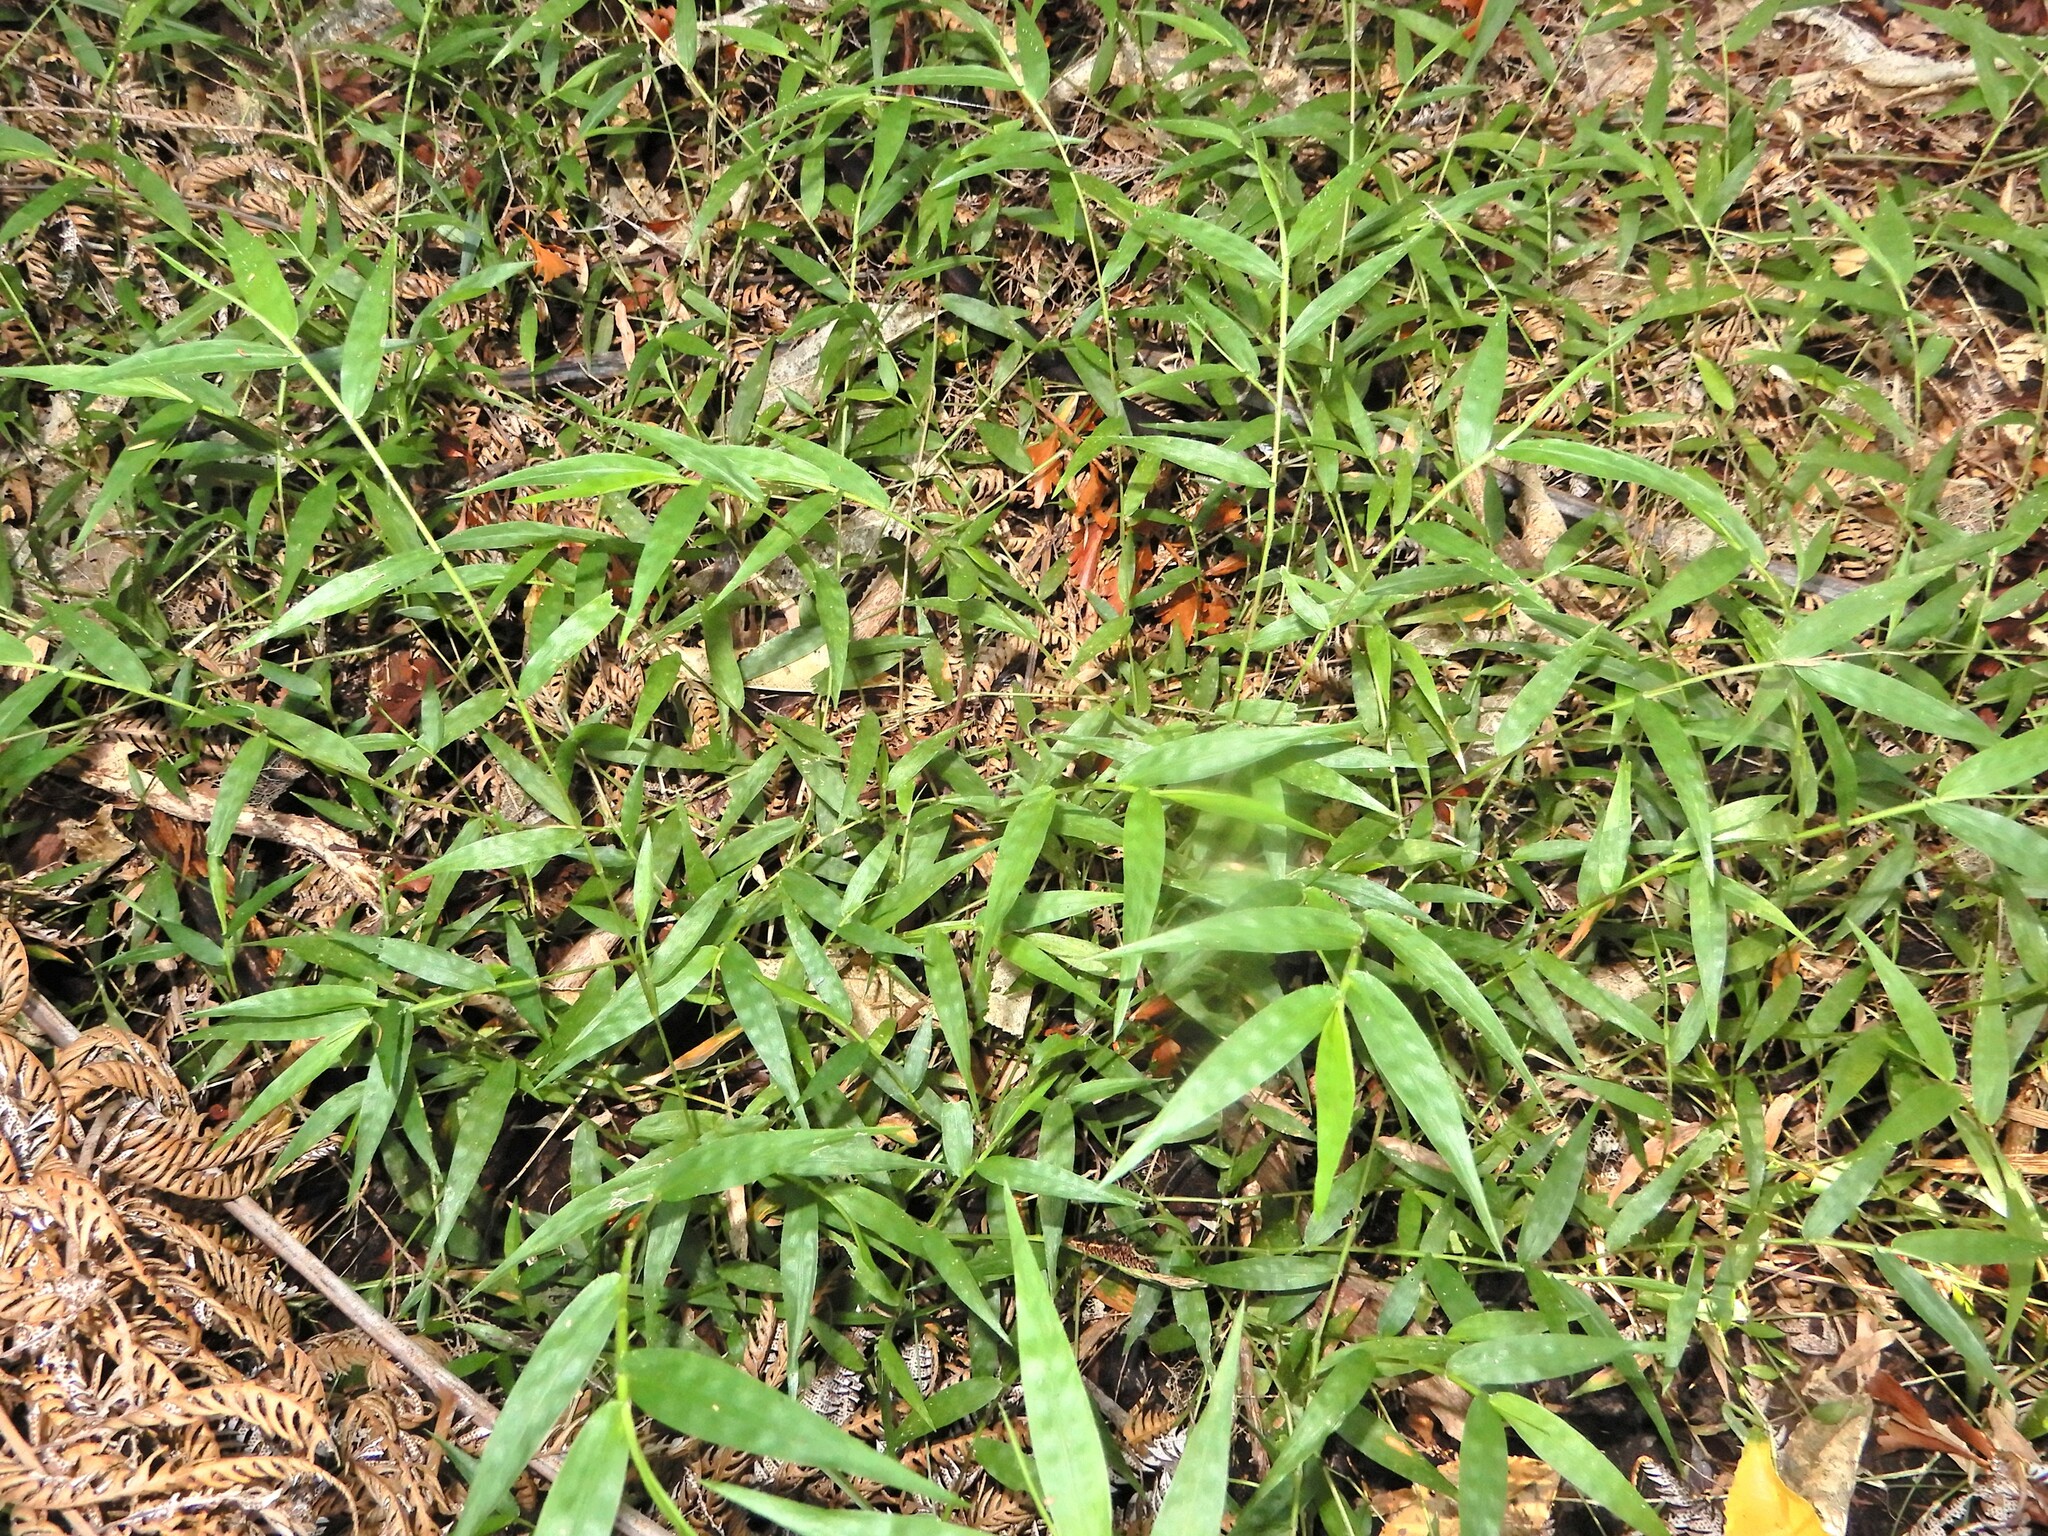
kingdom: Plantae
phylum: Tracheophyta
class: Liliopsida
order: Poales
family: Poaceae
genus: Oplismenus
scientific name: Oplismenus hirtellus
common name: Basketgrass
